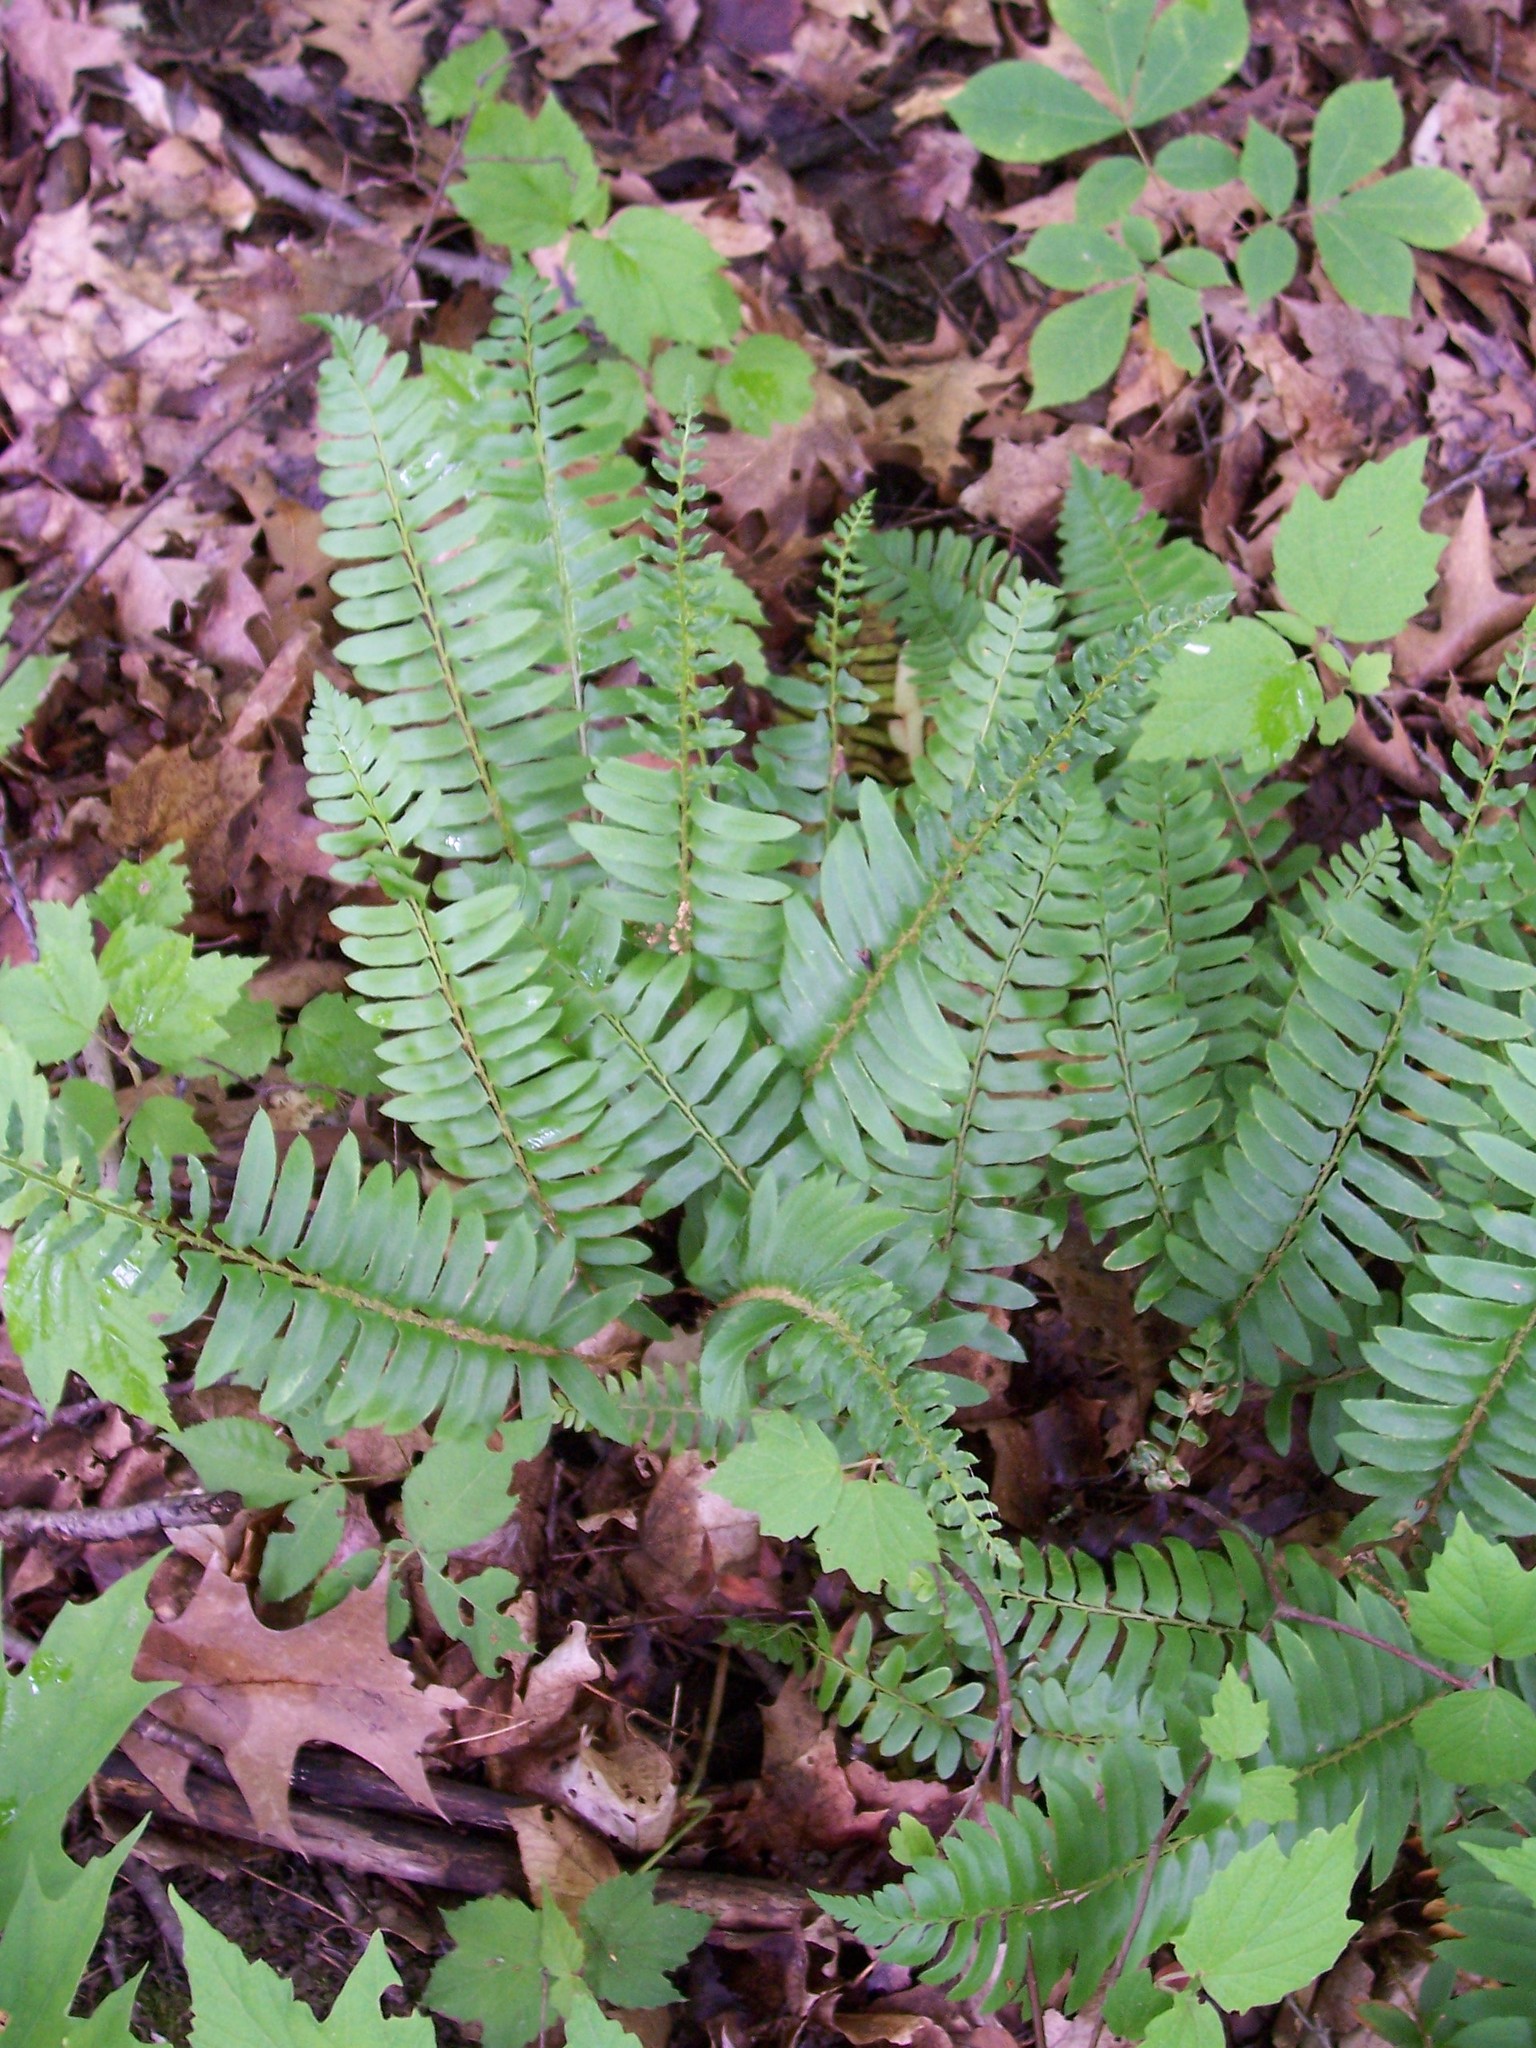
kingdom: Plantae
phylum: Tracheophyta
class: Polypodiopsida
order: Polypodiales
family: Dryopteridaceae
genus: Polystichum
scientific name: Polystichum acrostichoides
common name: Christmas fern
